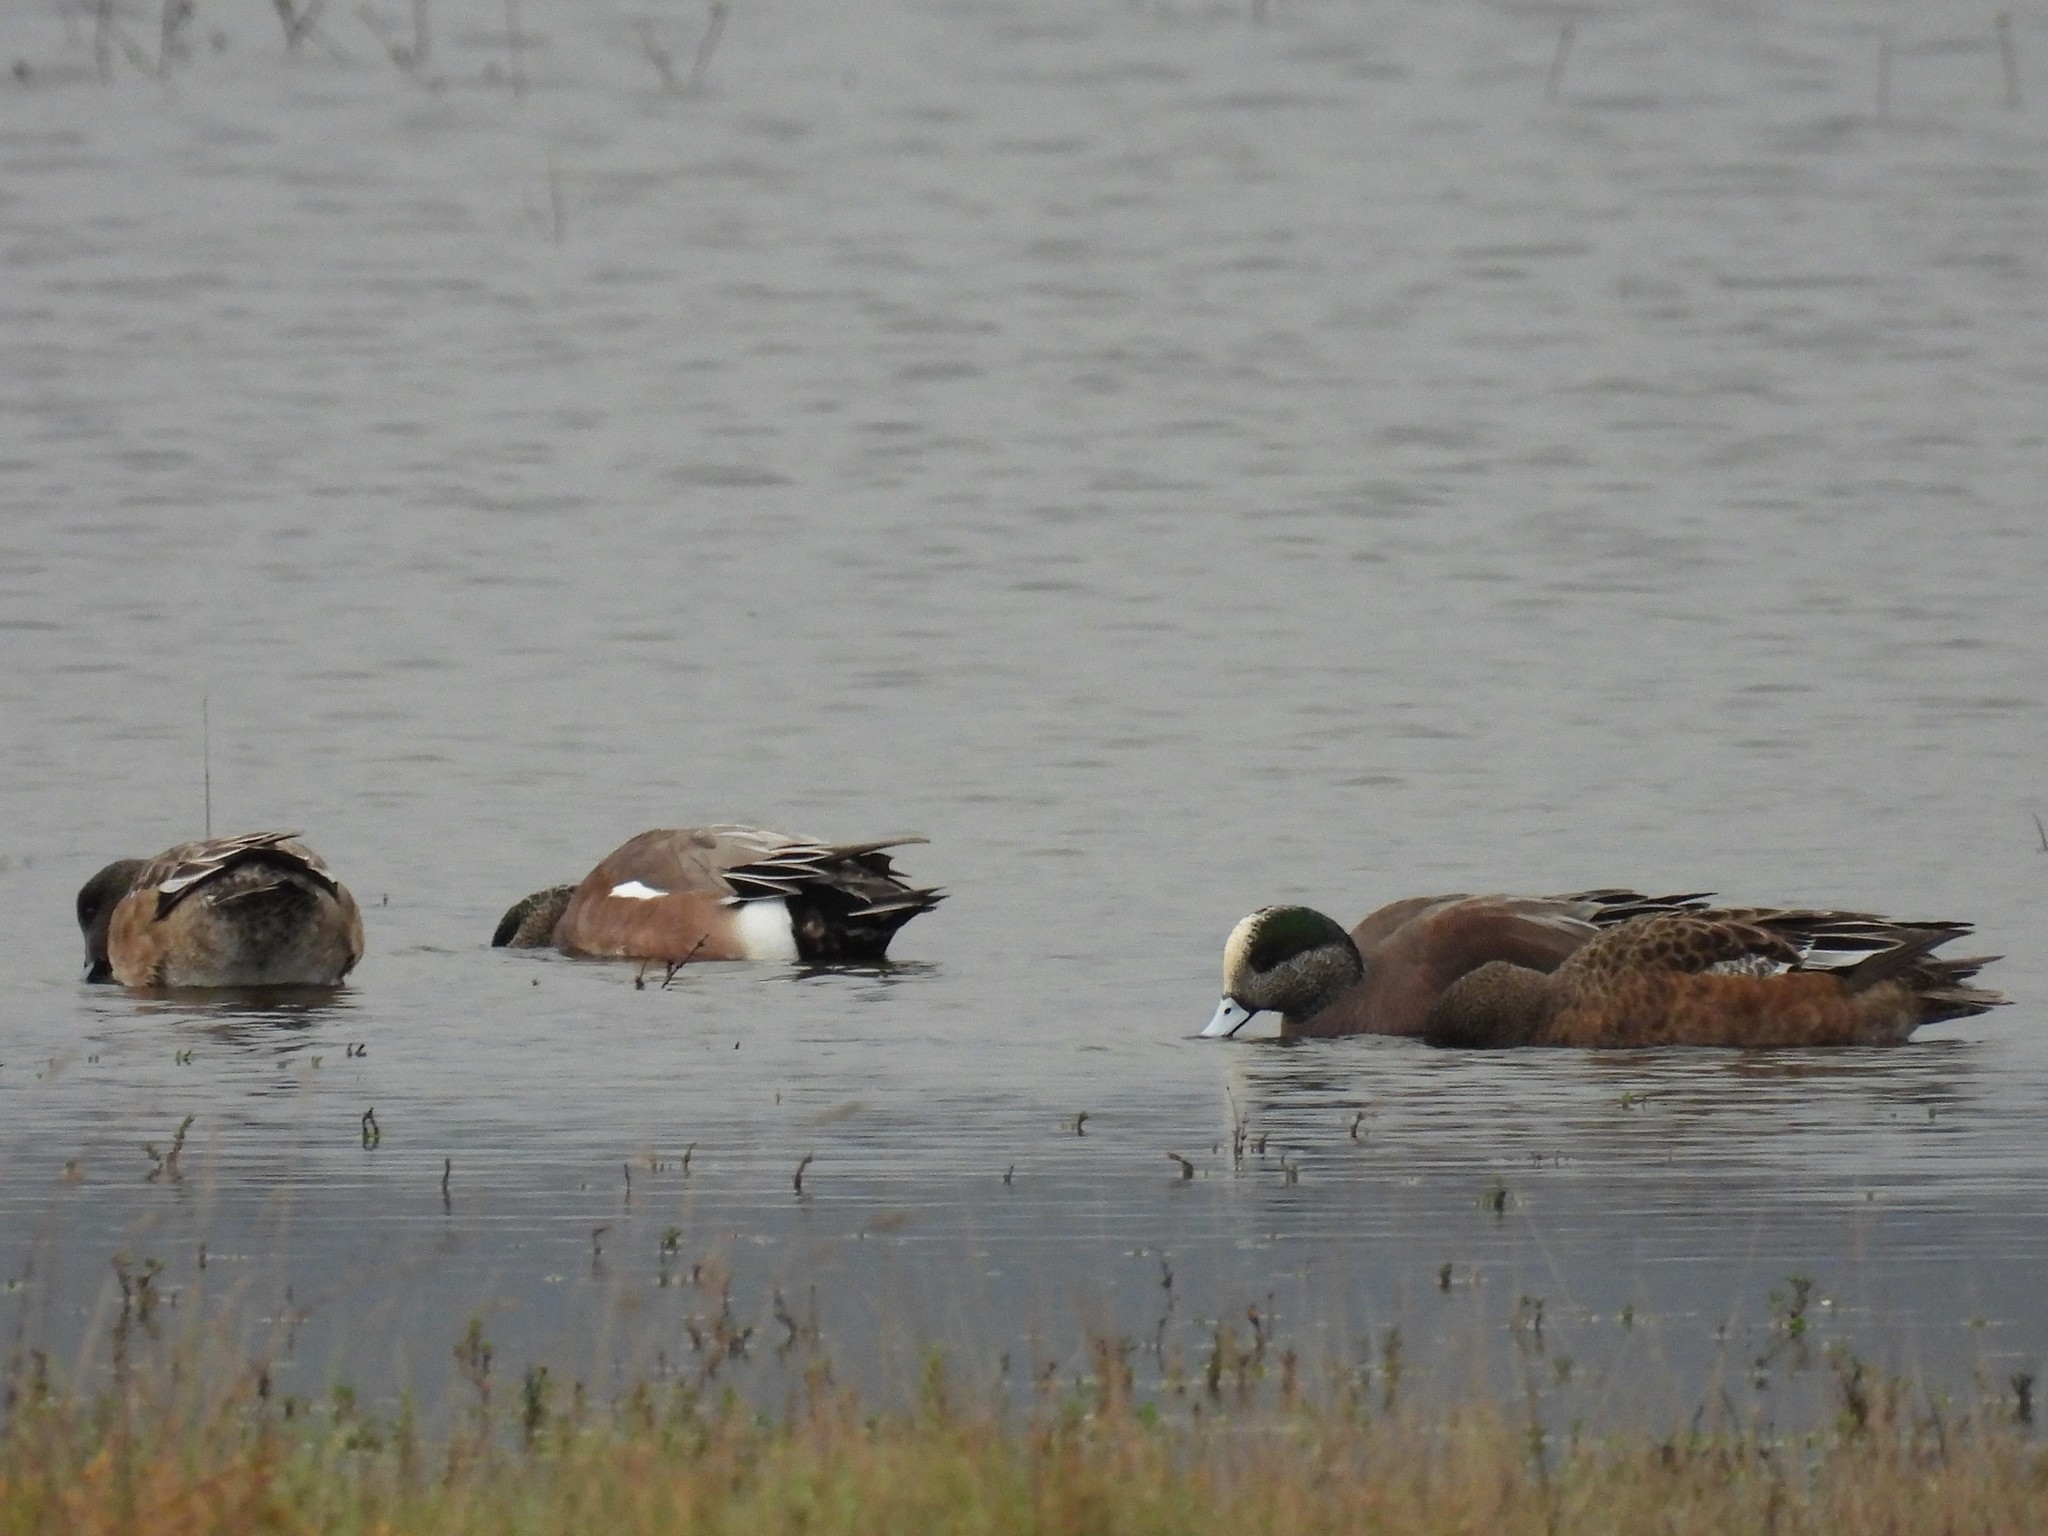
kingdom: Animalia
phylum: Chordata
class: Aves
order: Anseriformes
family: Anatidae
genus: Mareca
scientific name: Mareca americana
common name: American wigeon
